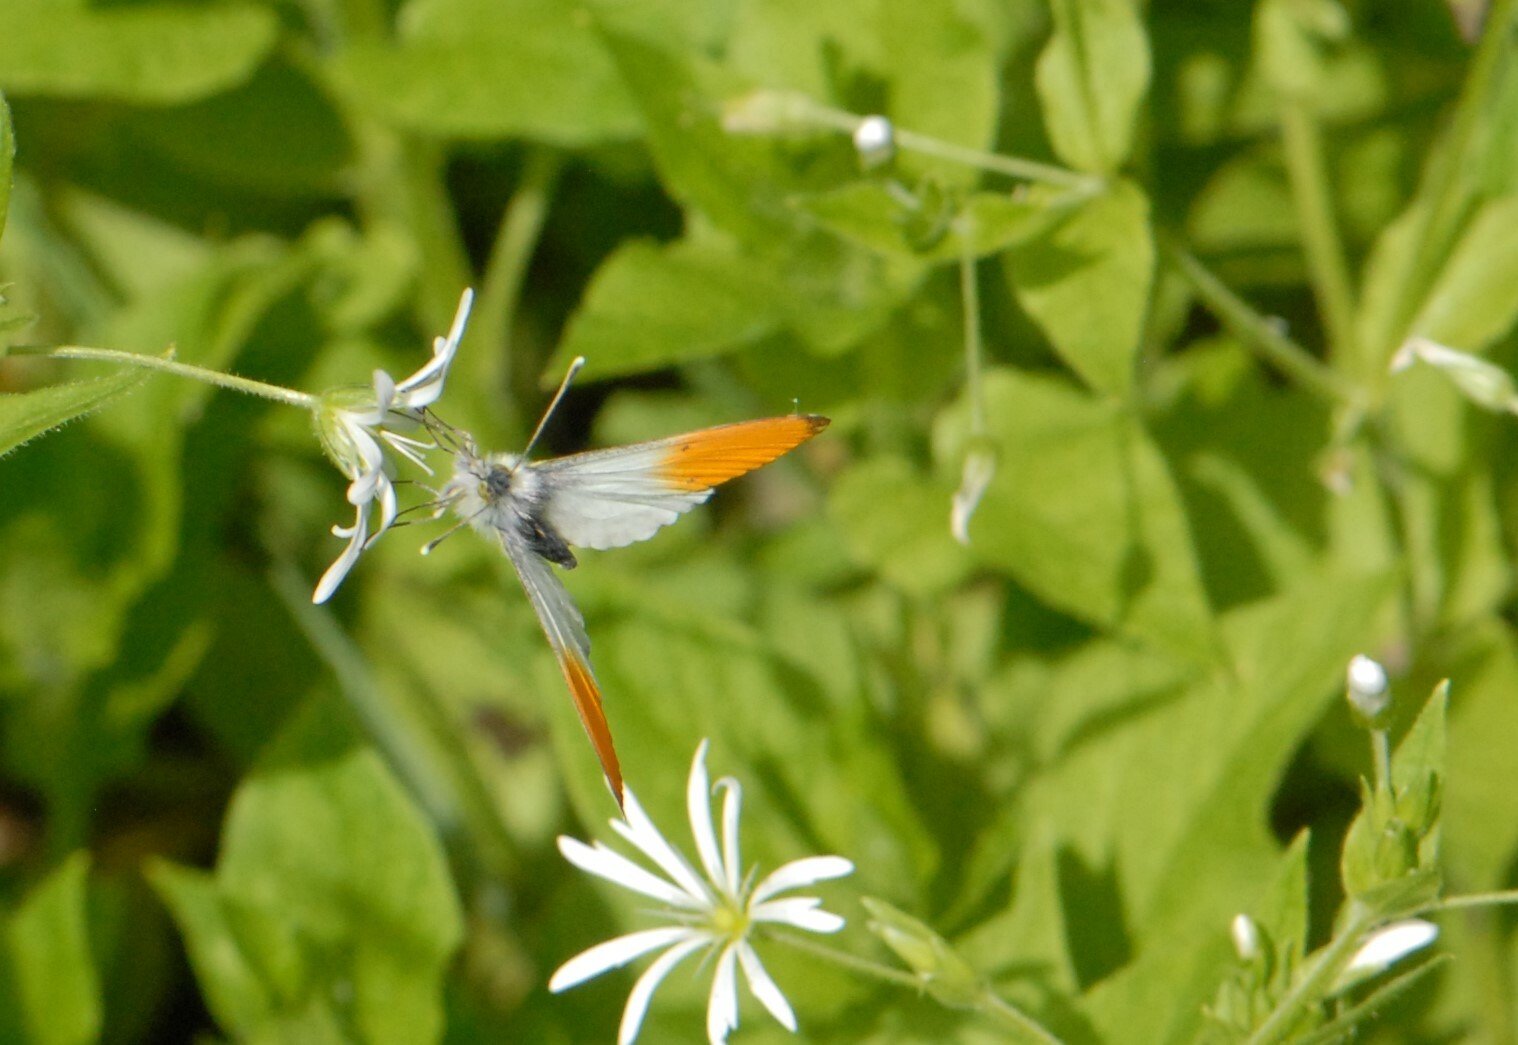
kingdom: Animalia
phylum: Arthropoda
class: Insecta
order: Lepidoptera
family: Pieridae
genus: Anthocharis
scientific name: Anthocharis cardamines
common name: Orange-tip
